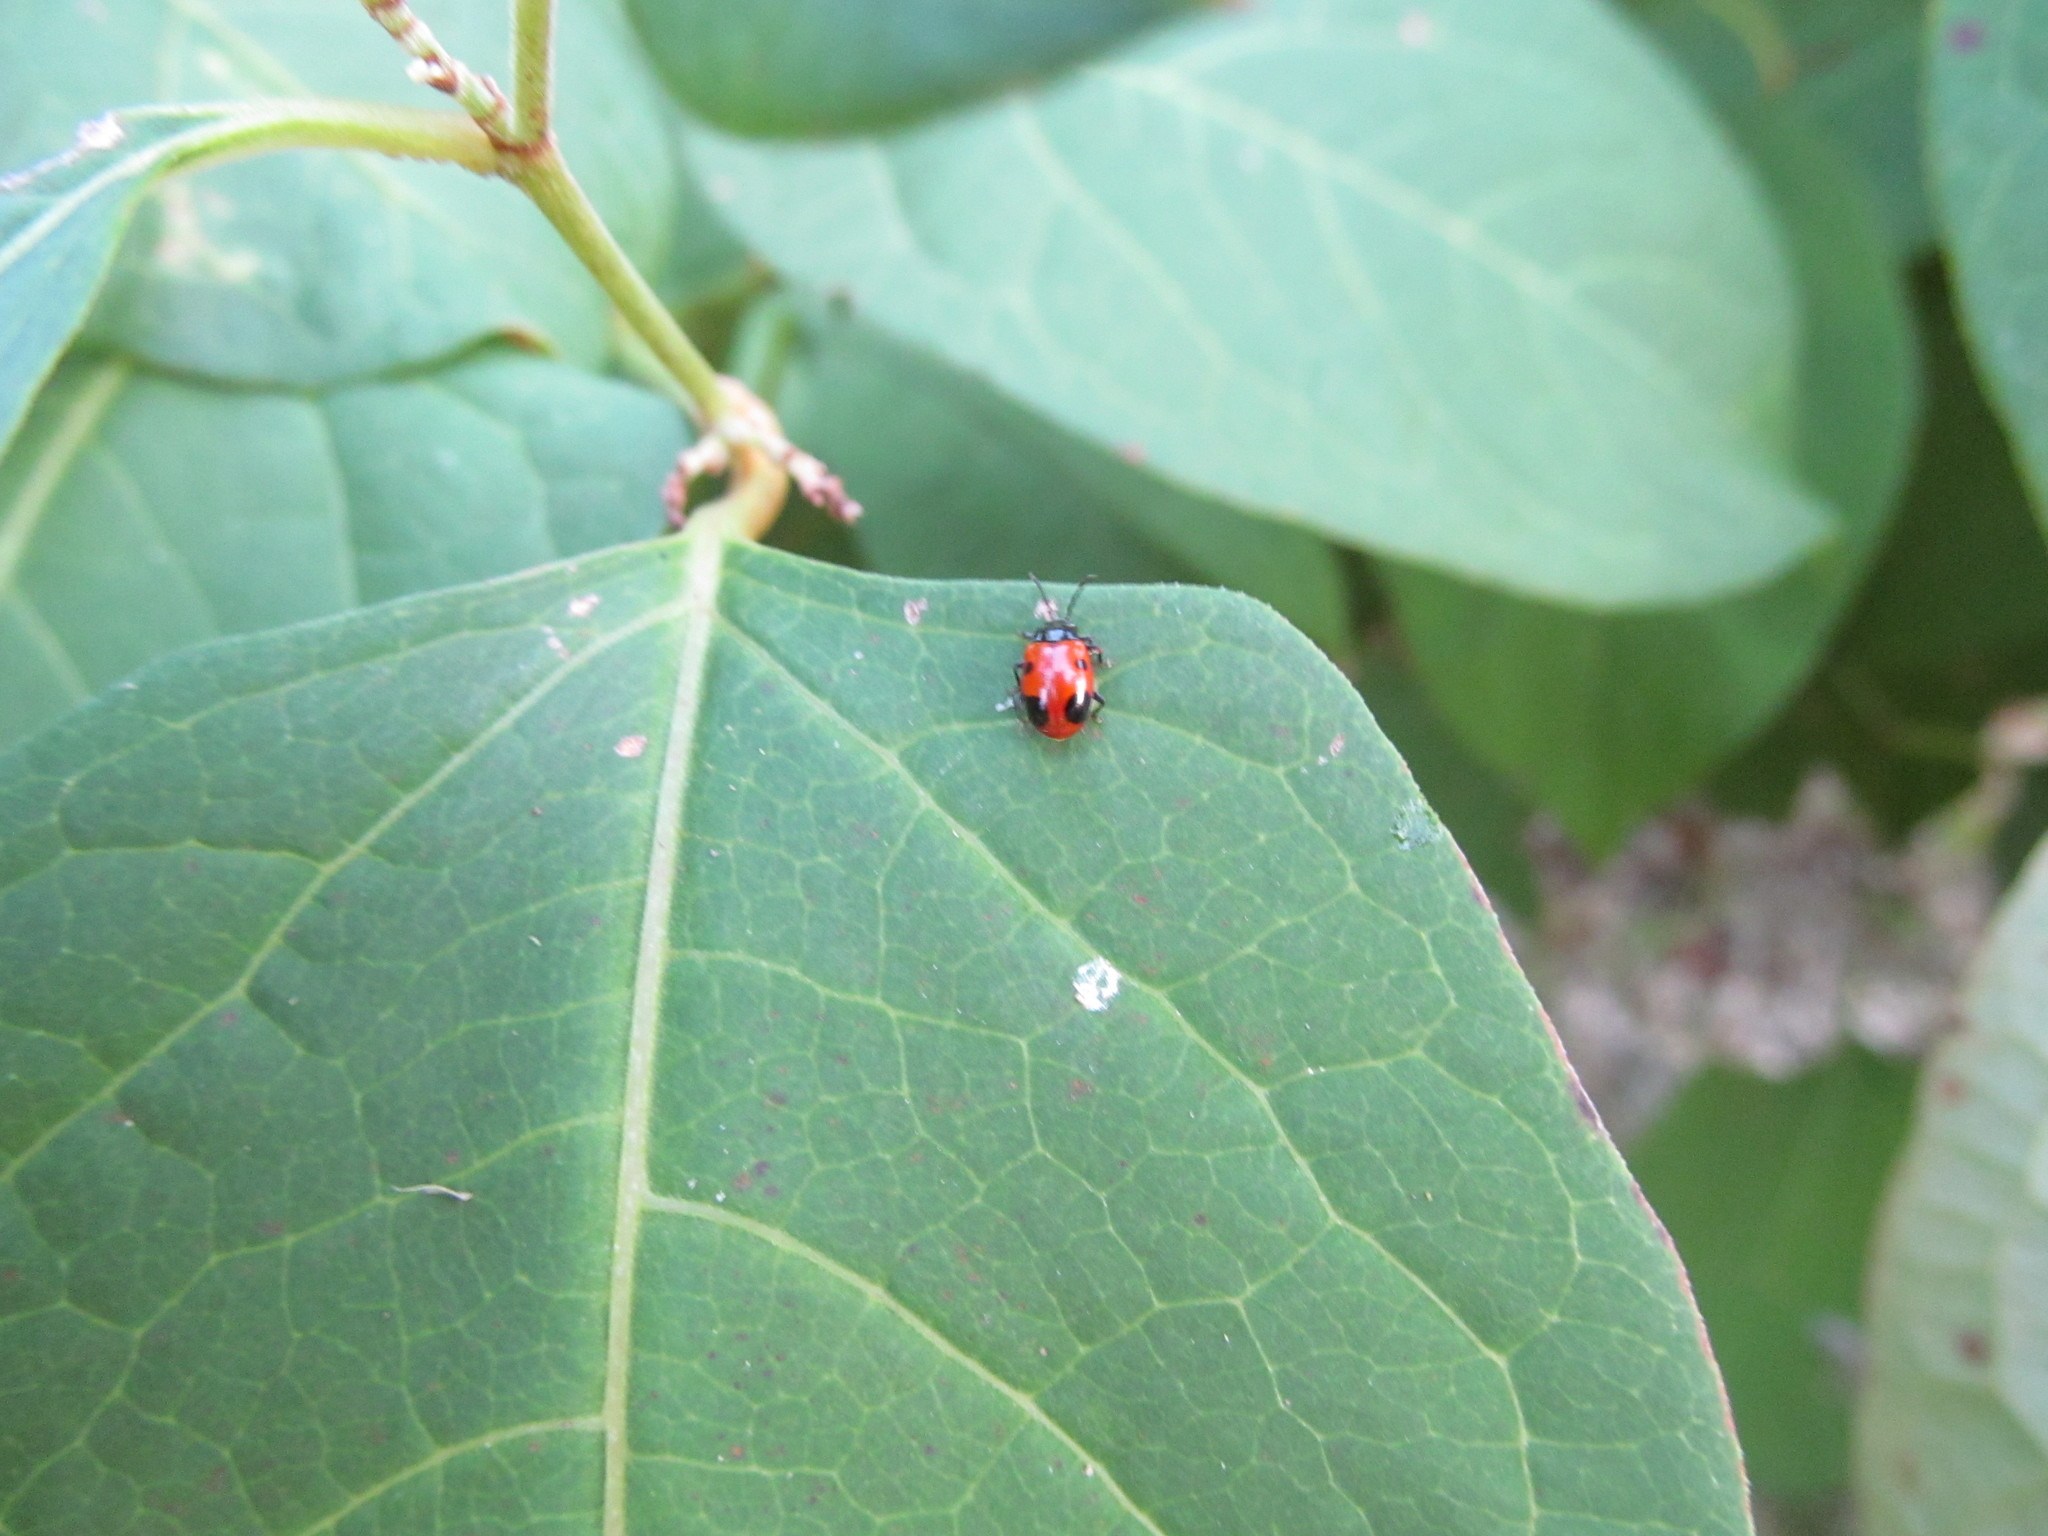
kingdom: Animalia
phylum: Arthropoda
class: Insecta
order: Coleoptera
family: Endomychidae
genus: Endomychus
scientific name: Endomychus biguttatus
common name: Handsome fungus beetle
